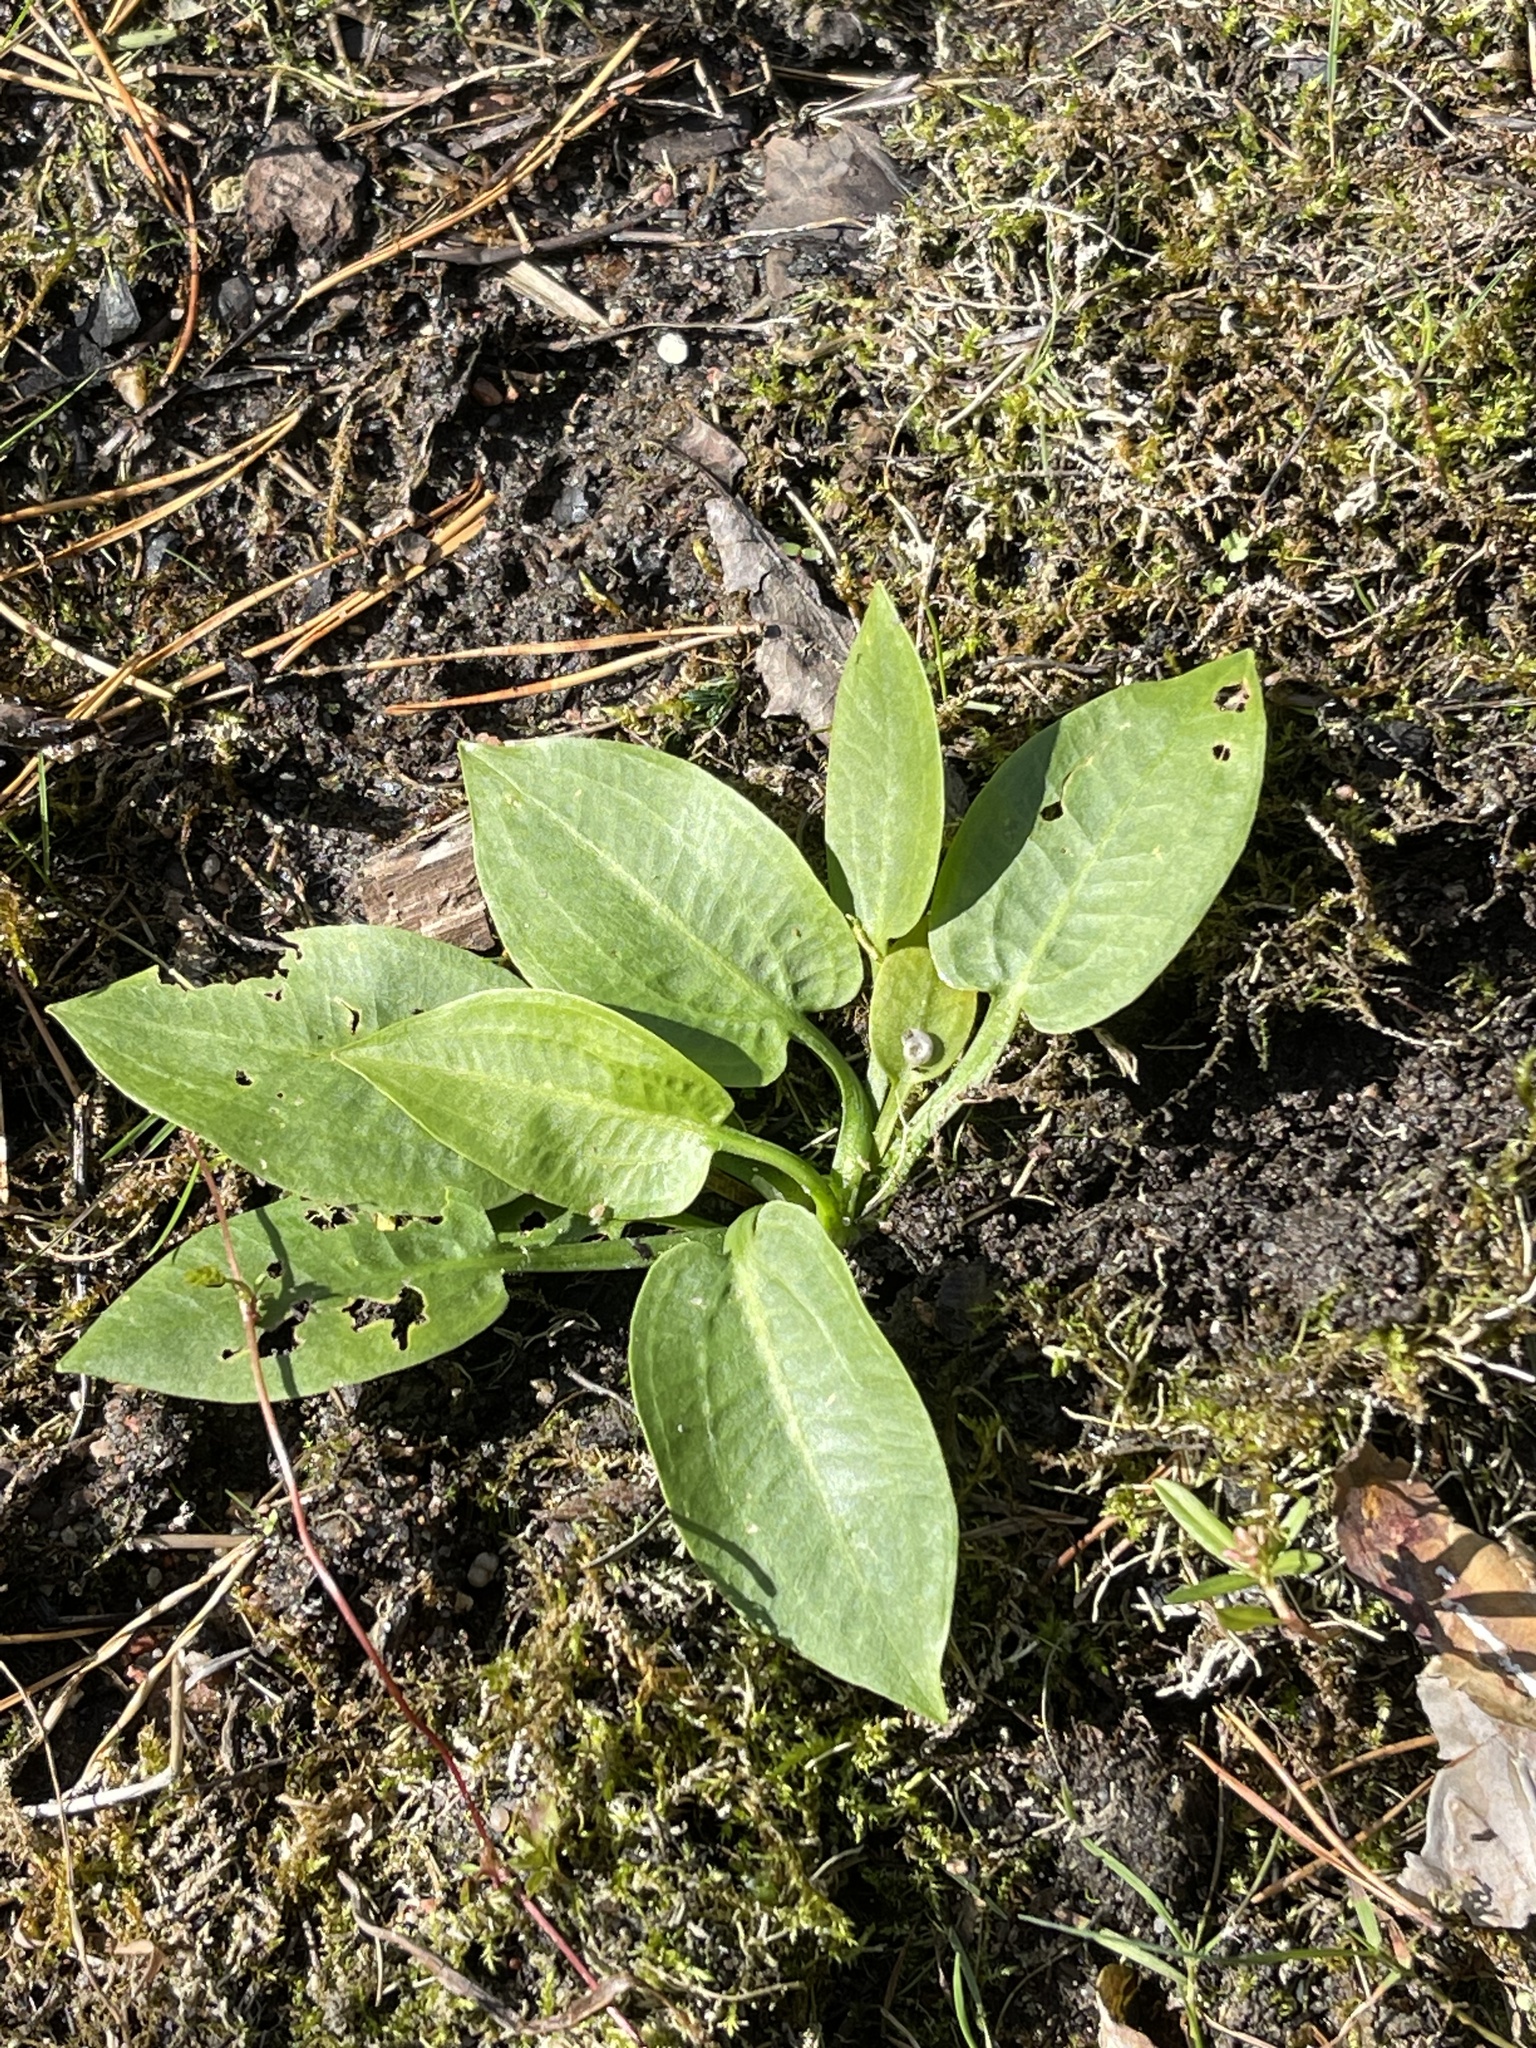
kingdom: Plantae
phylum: Tracheophyta
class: Liliopsida
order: Alismatales
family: Alismataceae
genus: Alisma
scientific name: Alisma plantago-aquatica
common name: Water-plantain
